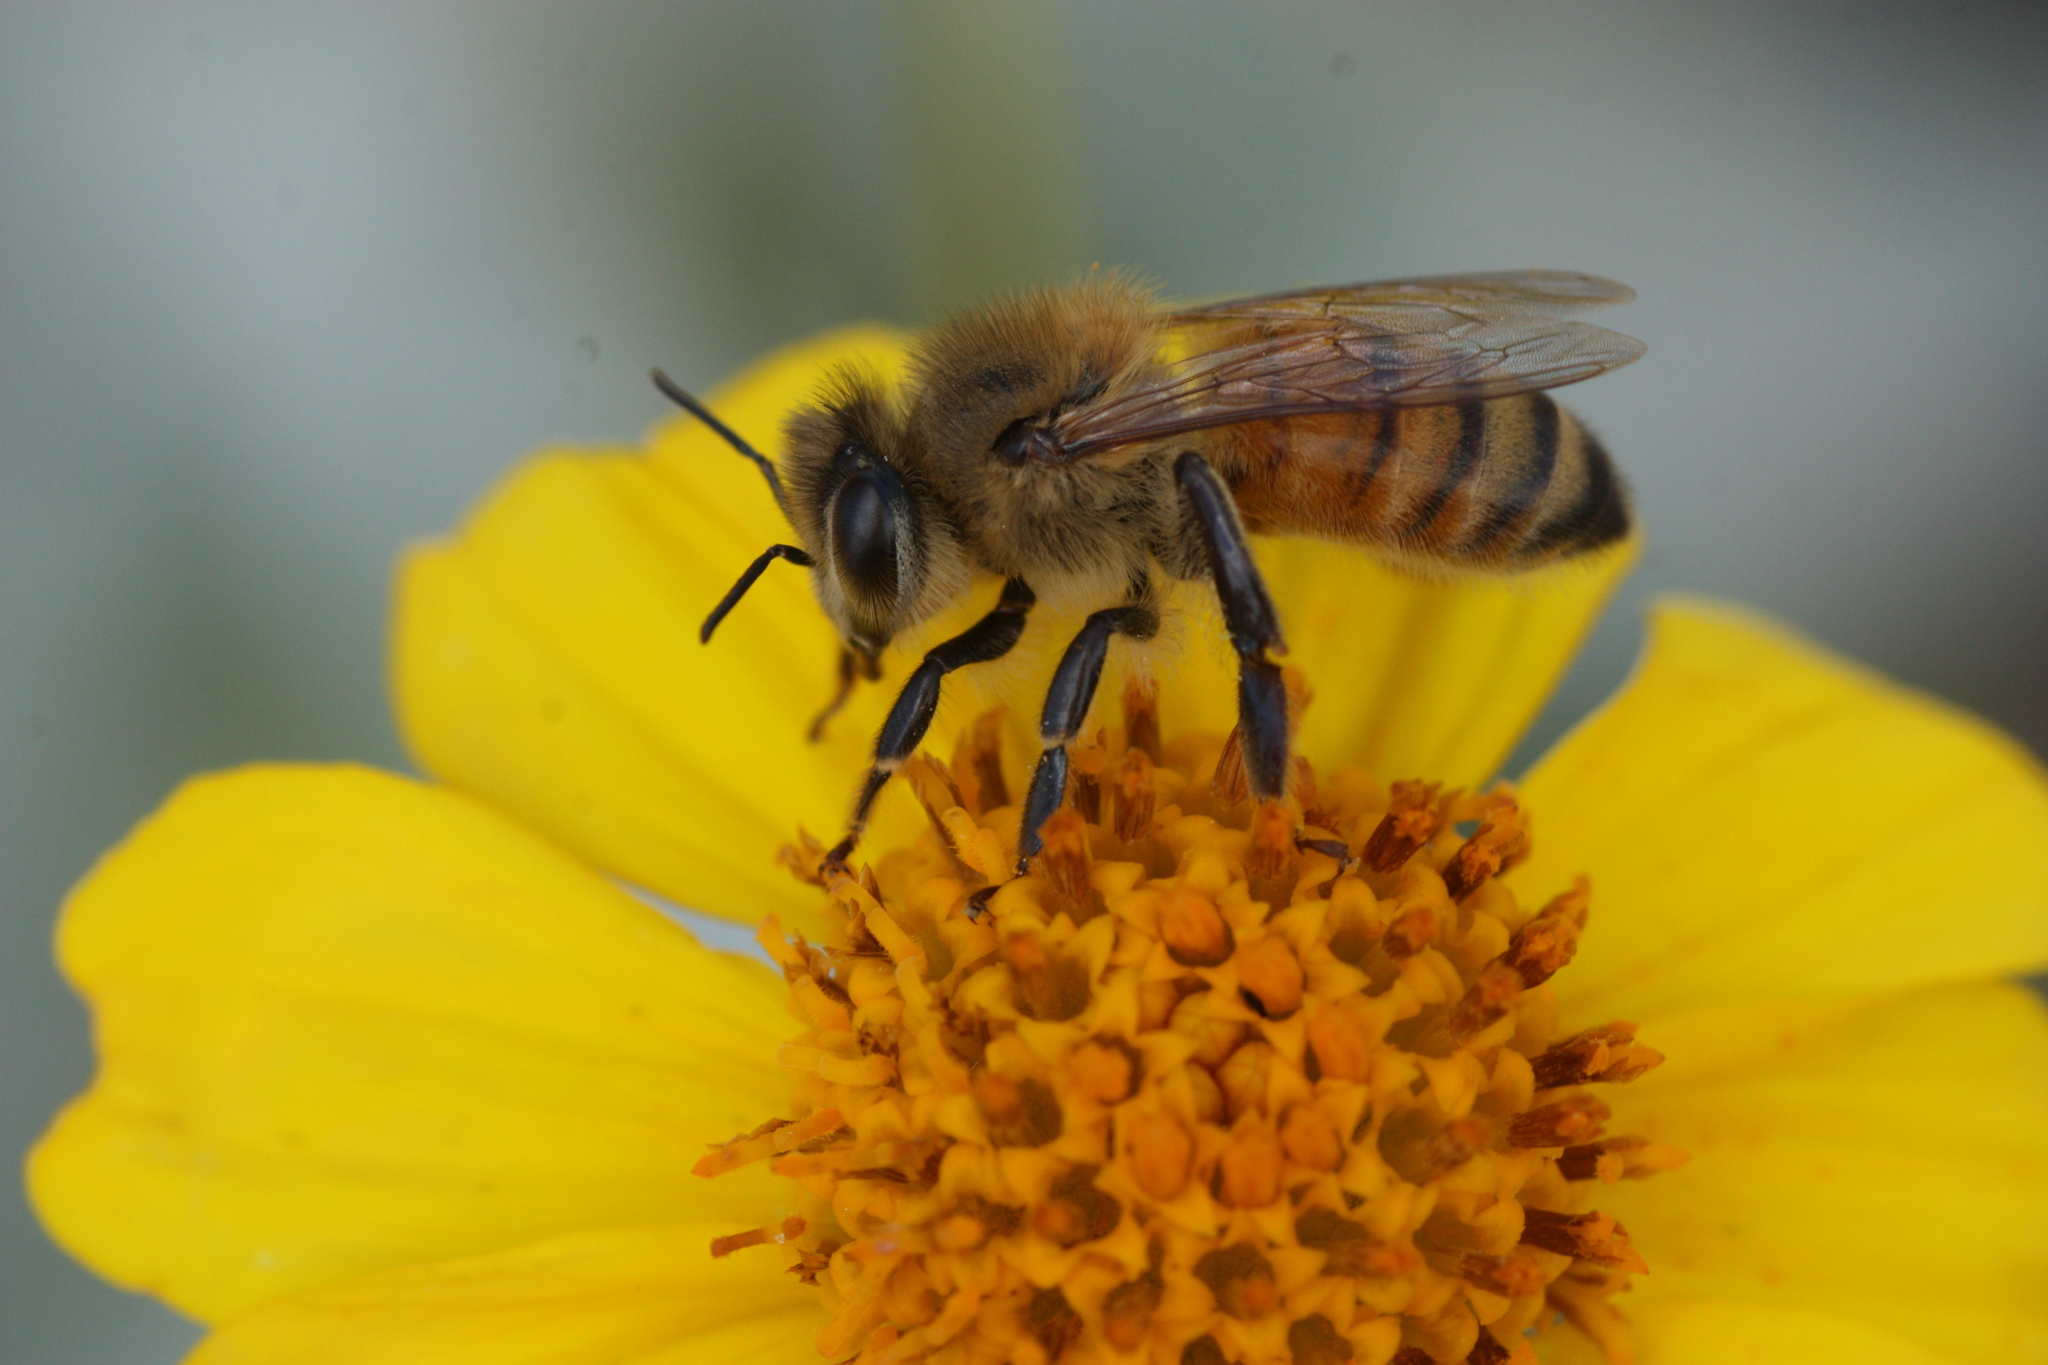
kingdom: Animalia
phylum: Arthropoda
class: Insecta
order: Hymenoptera
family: Apidae
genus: Apis
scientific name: Apis mellifera
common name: Honey bee
